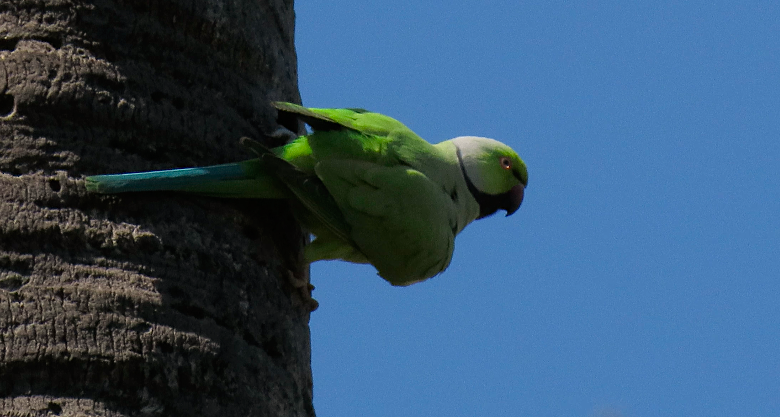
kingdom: Animalia
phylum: Chordata
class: Aves
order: Psittaciformes
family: Psittacidae
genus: Psittacula
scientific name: Psittacula krameri
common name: Rose-ringed parakeet
